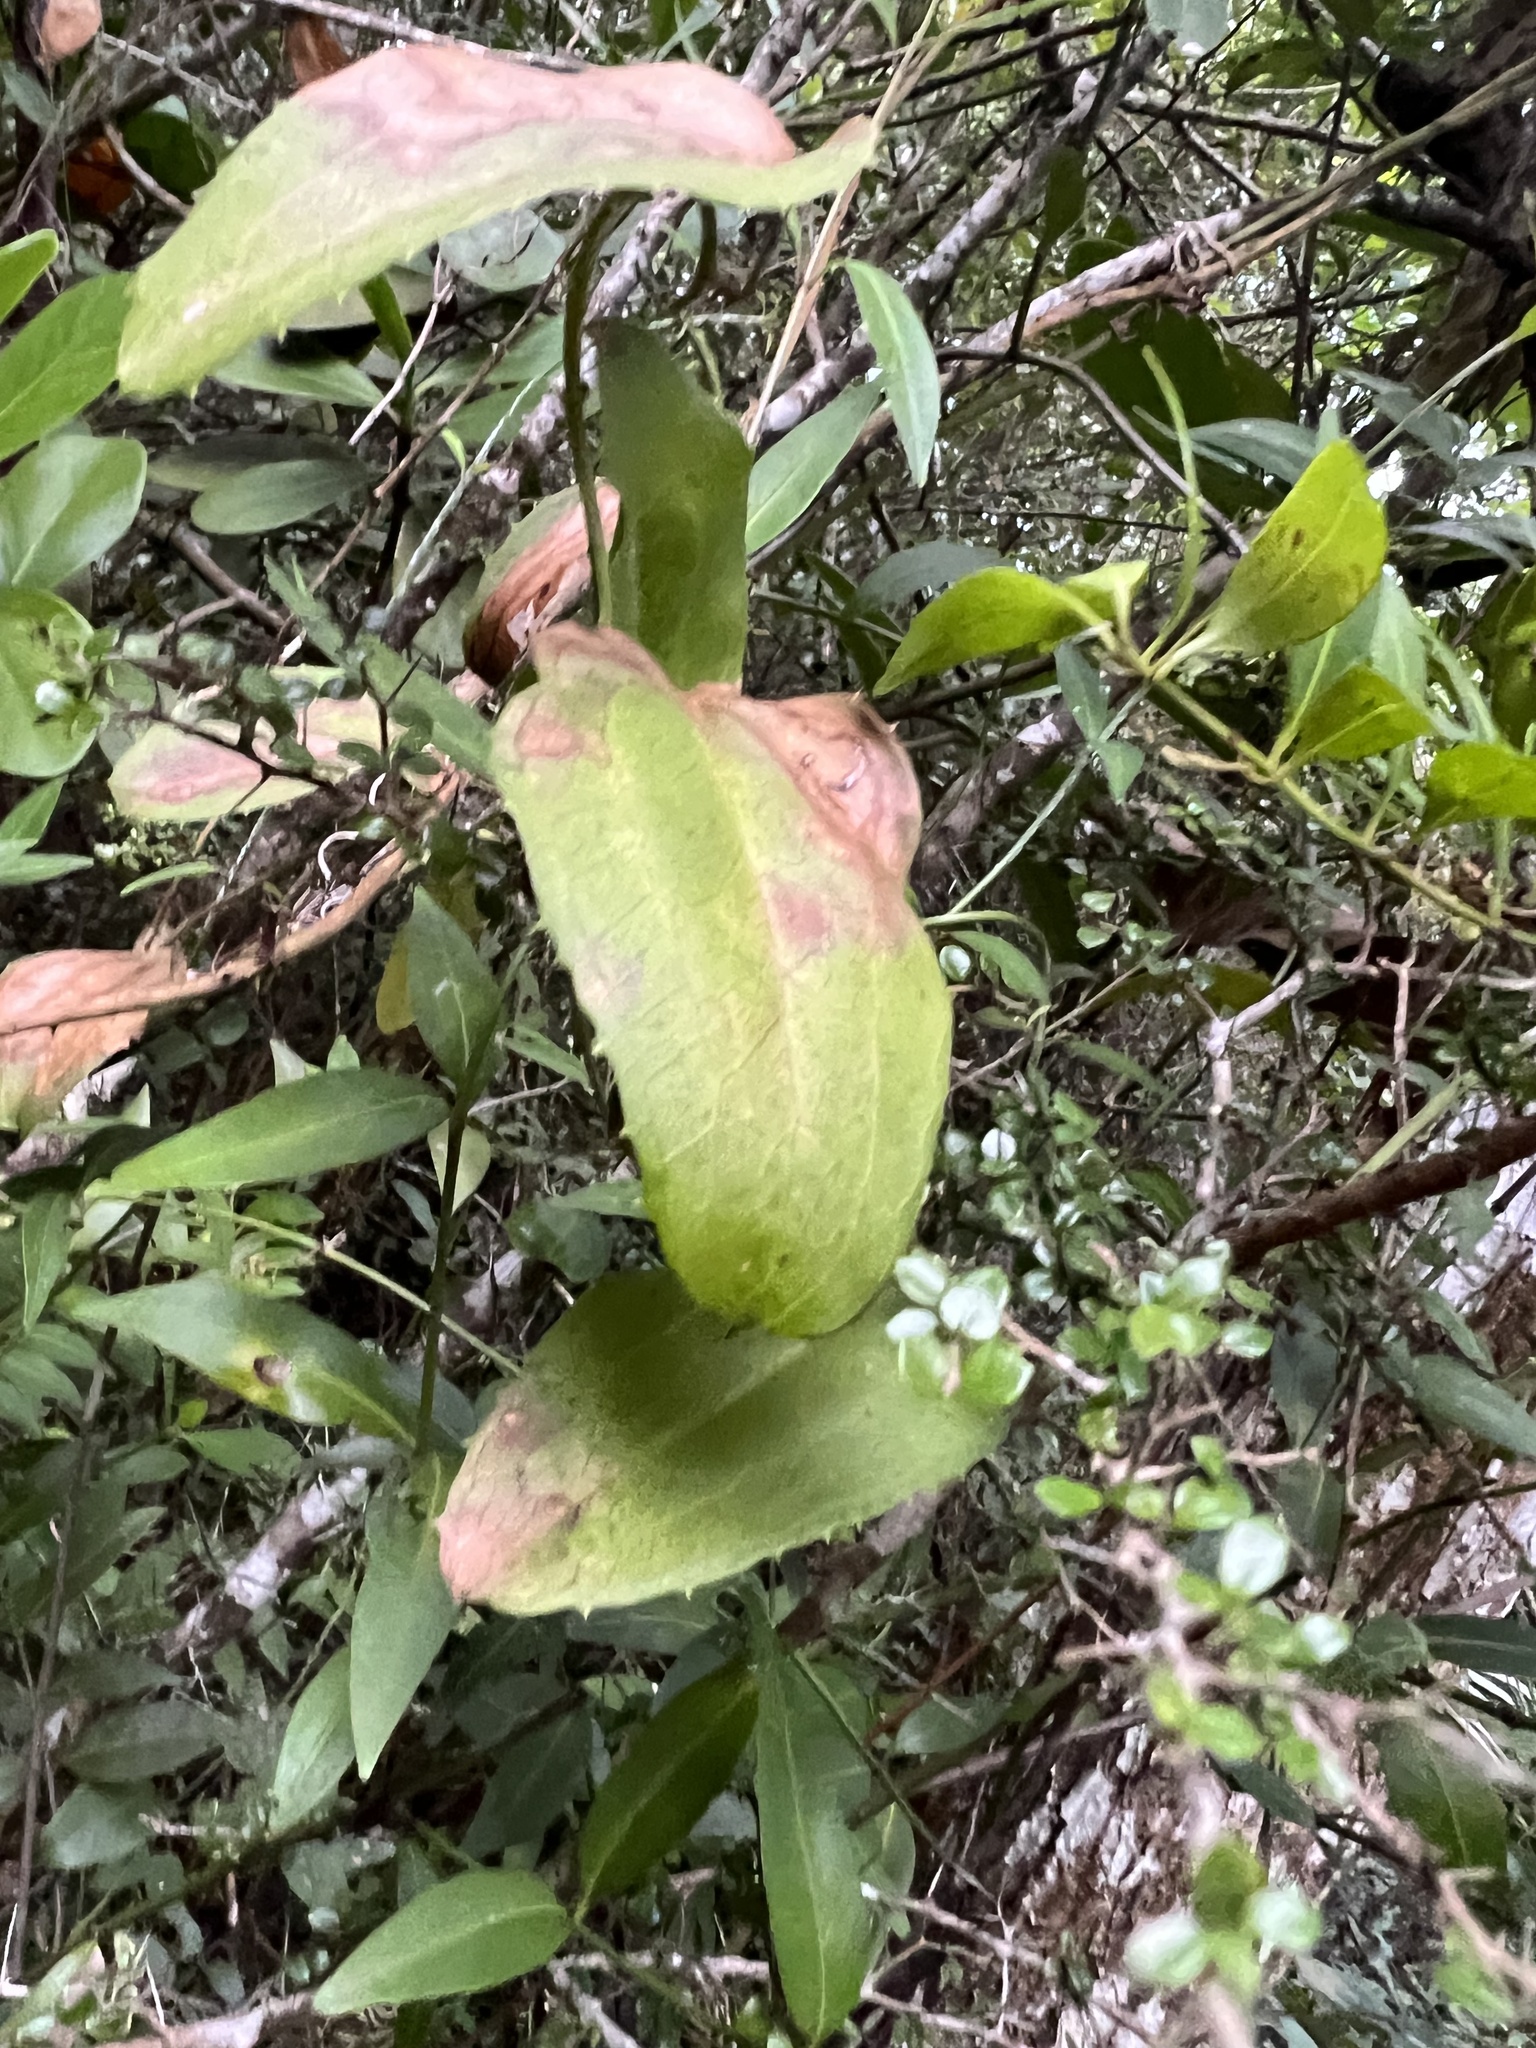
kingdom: Plantae
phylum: Tracheophyta
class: Liliopsida
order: Liliales
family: Smilacaceae
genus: Smilax
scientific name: Smilax havanensis
